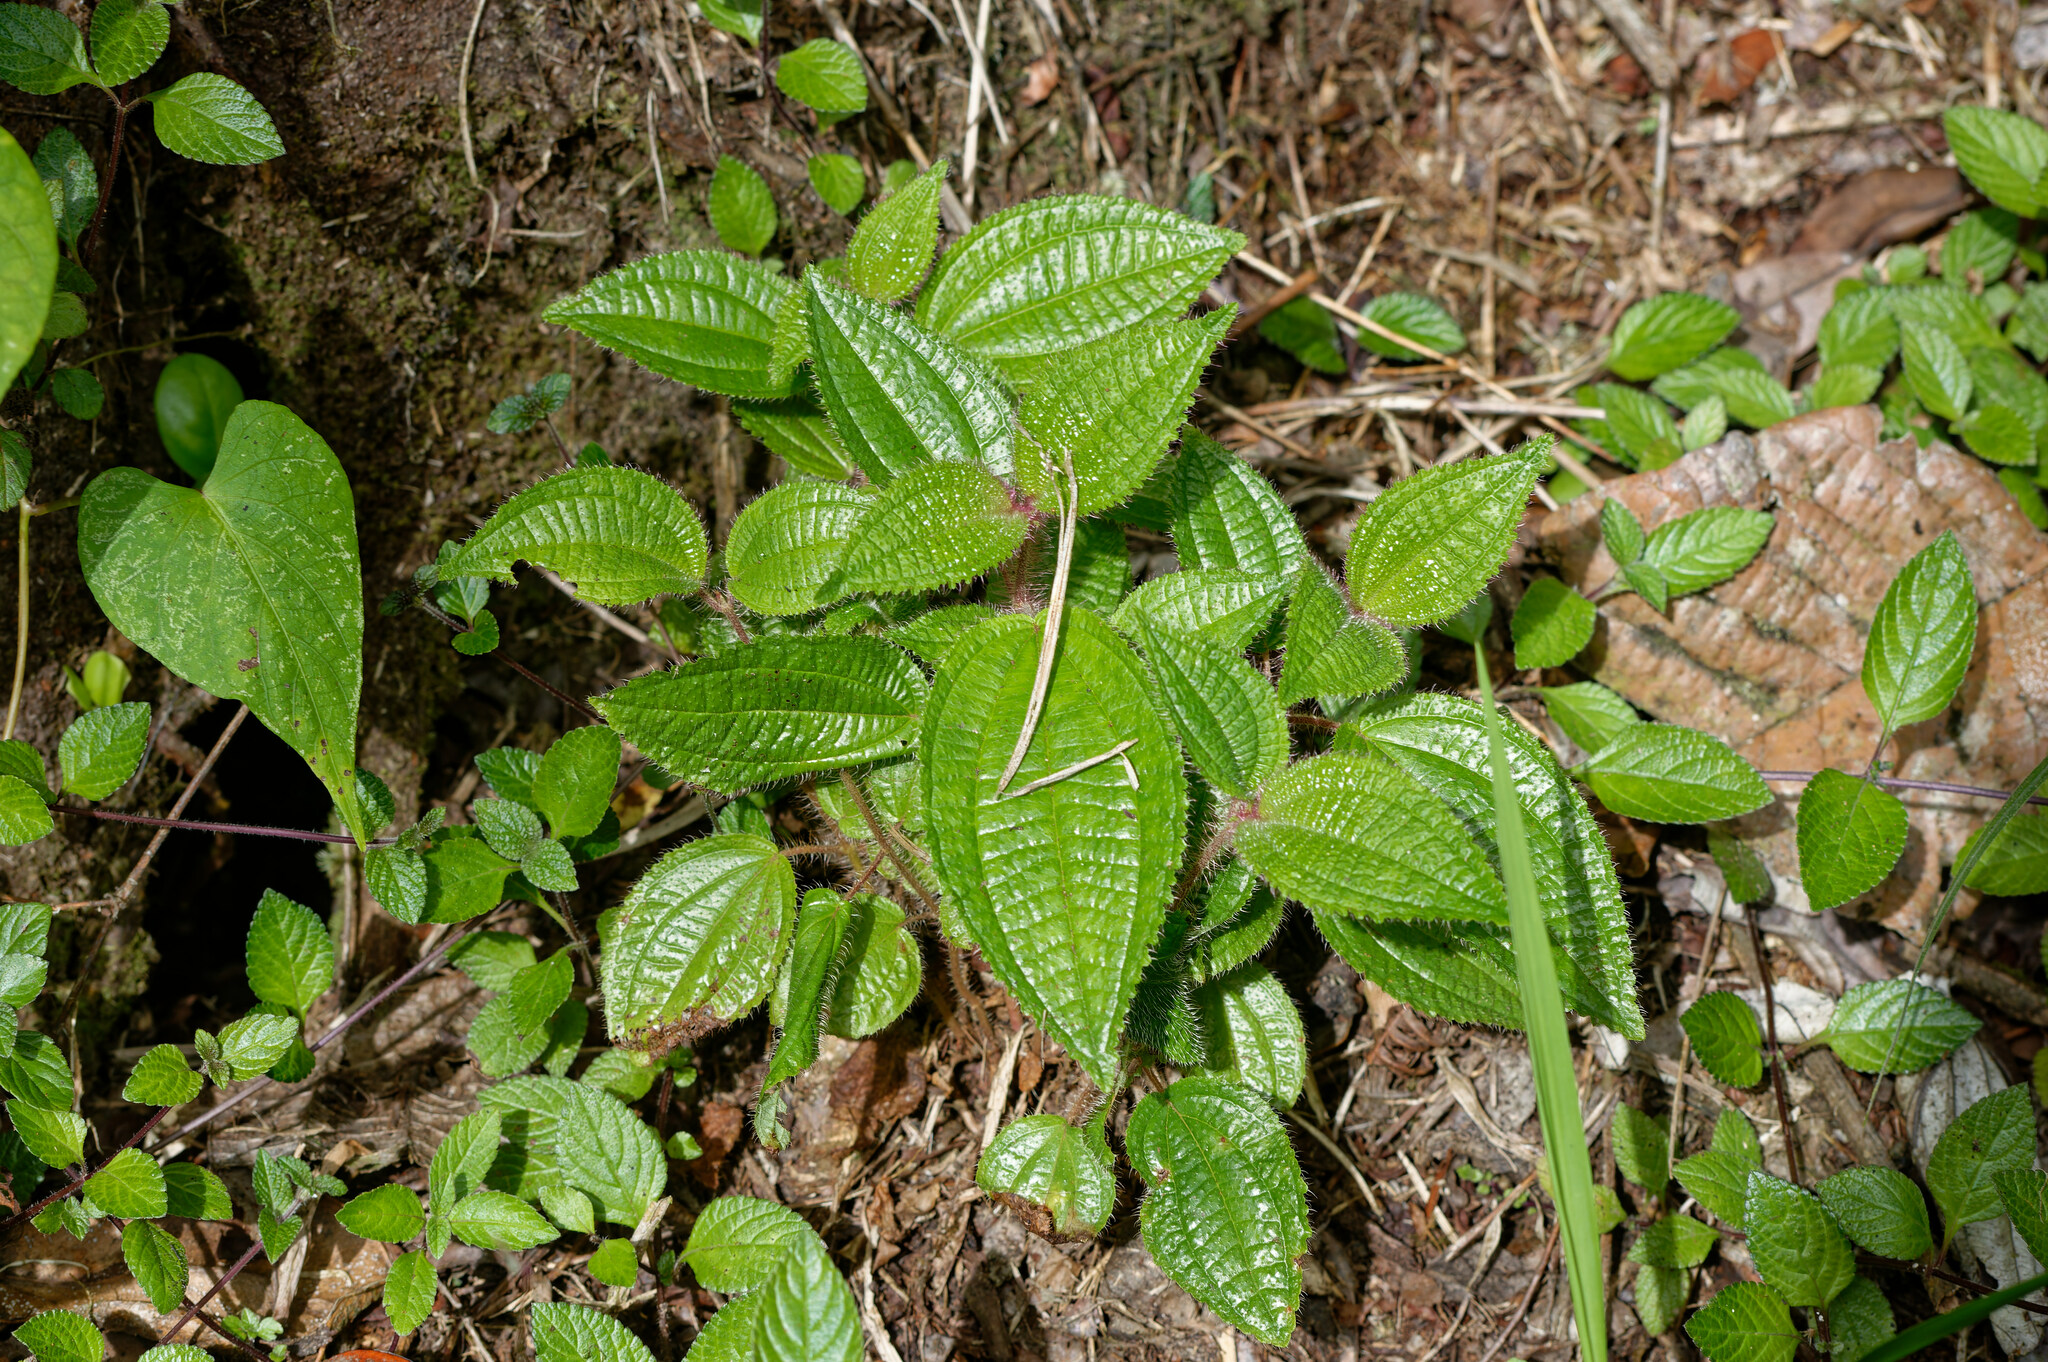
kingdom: Plantae
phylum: Tracheophyta
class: Magnoliopsida
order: Myrtales
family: Melastomataceae
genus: Miconia
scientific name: Miconia crenata
